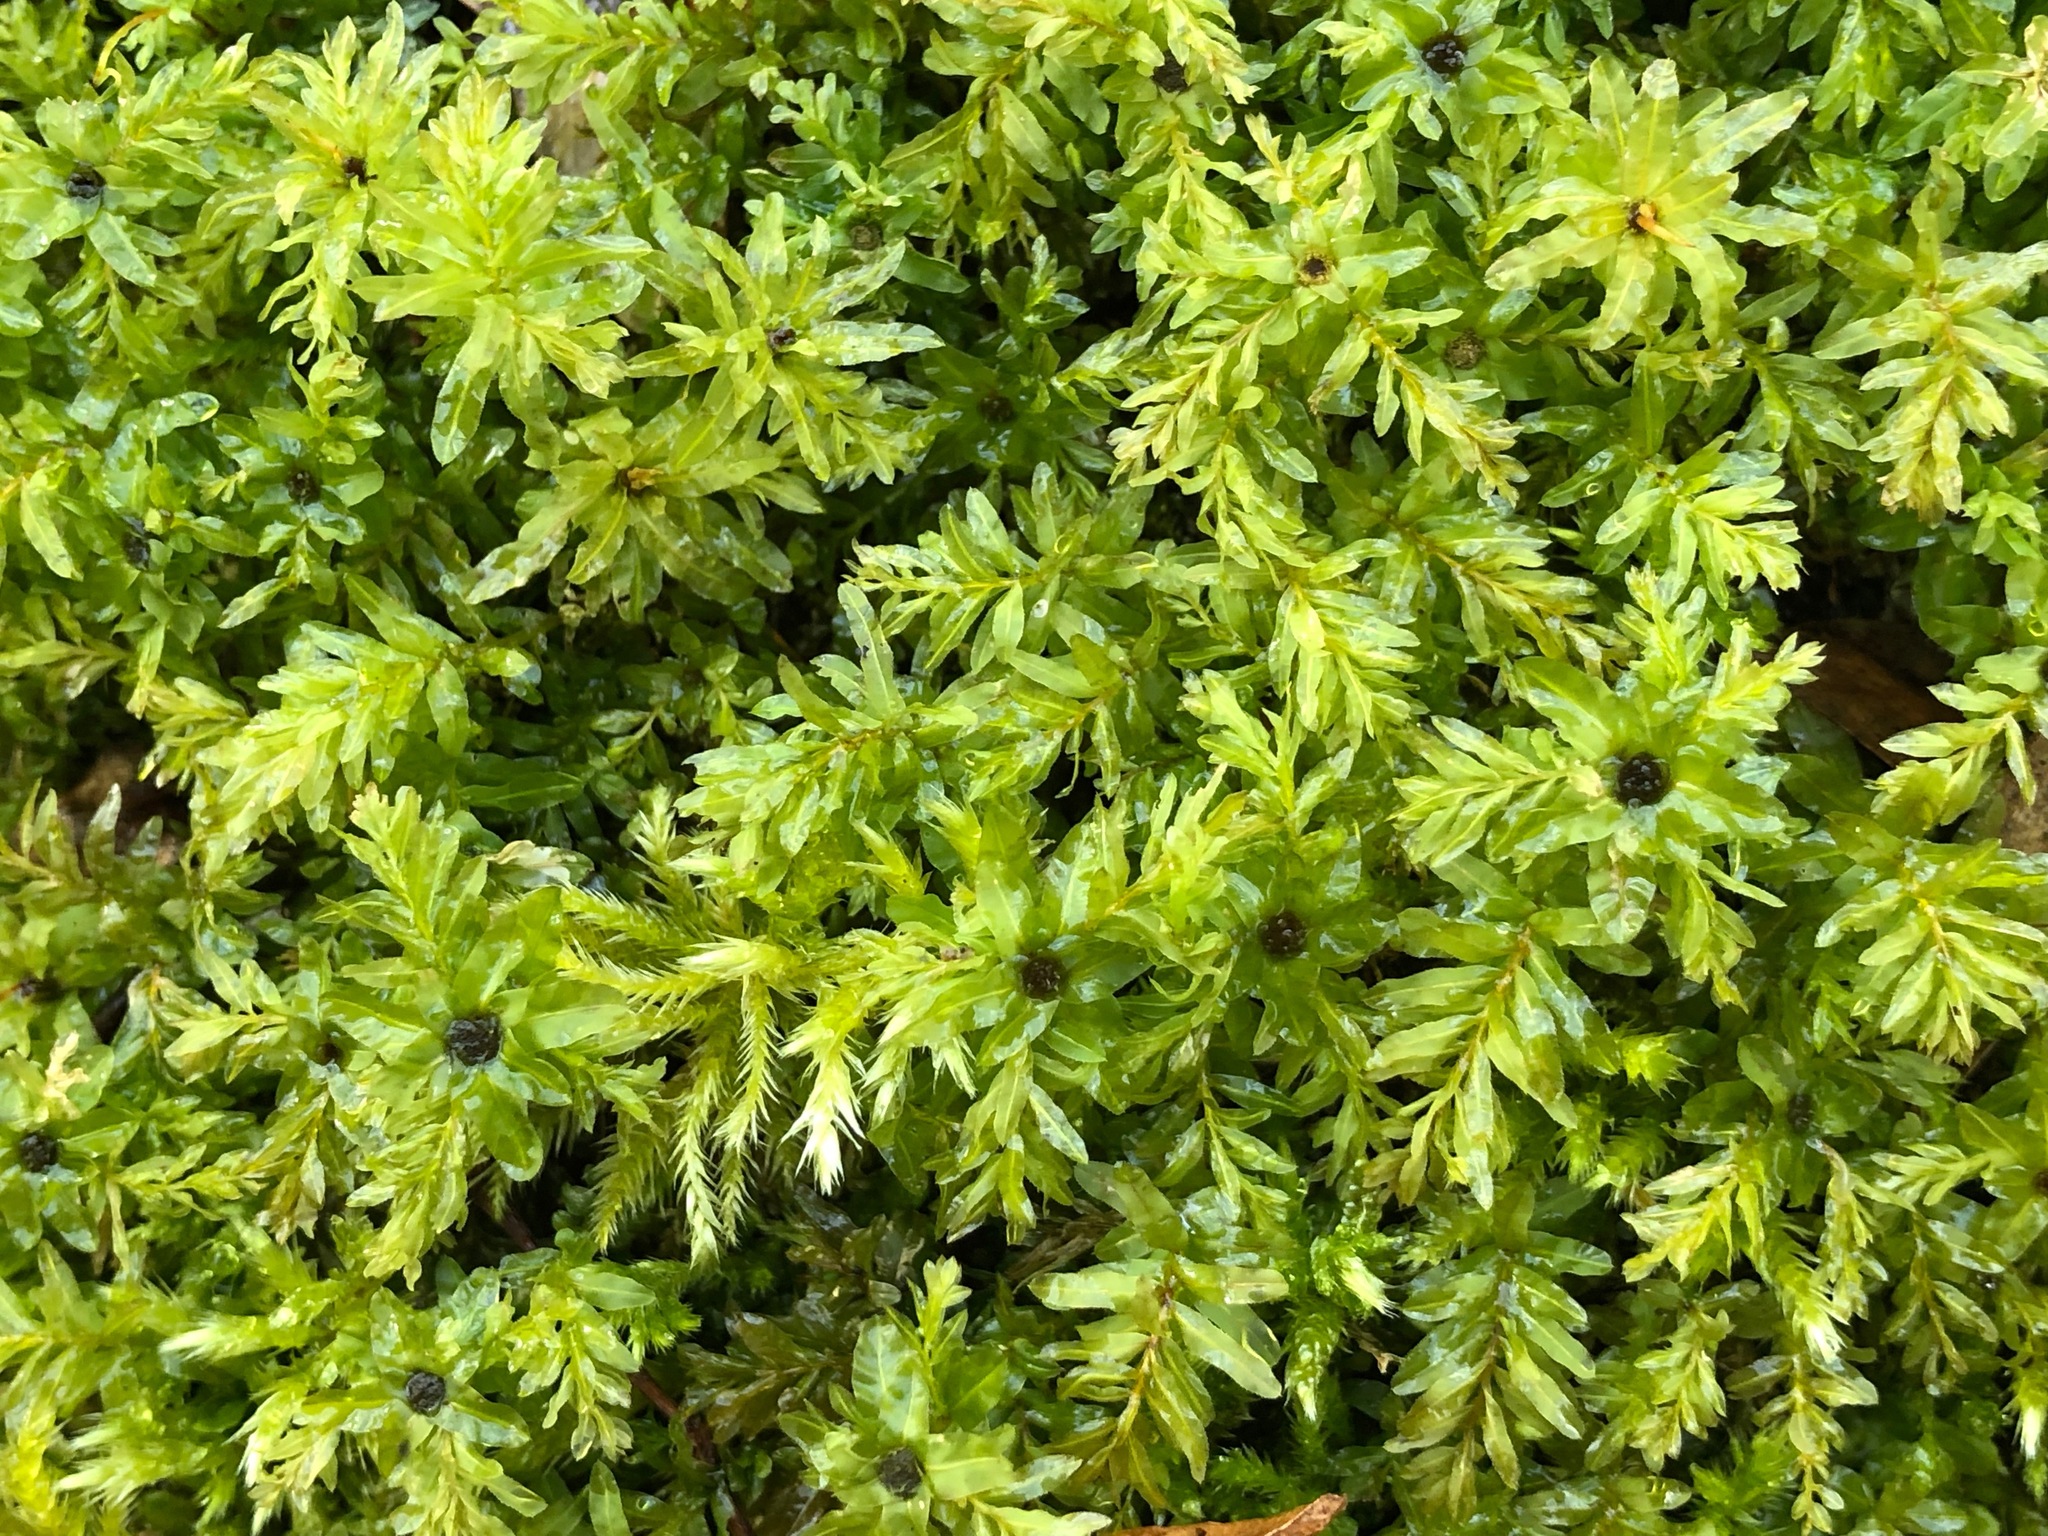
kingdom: Plantae
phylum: Bryophyta
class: Bryopsida
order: Bryales
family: Mniaceae
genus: Plagiomnium
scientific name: Plagiomnium undulatum
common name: Hart's-tongue thyme-moss
